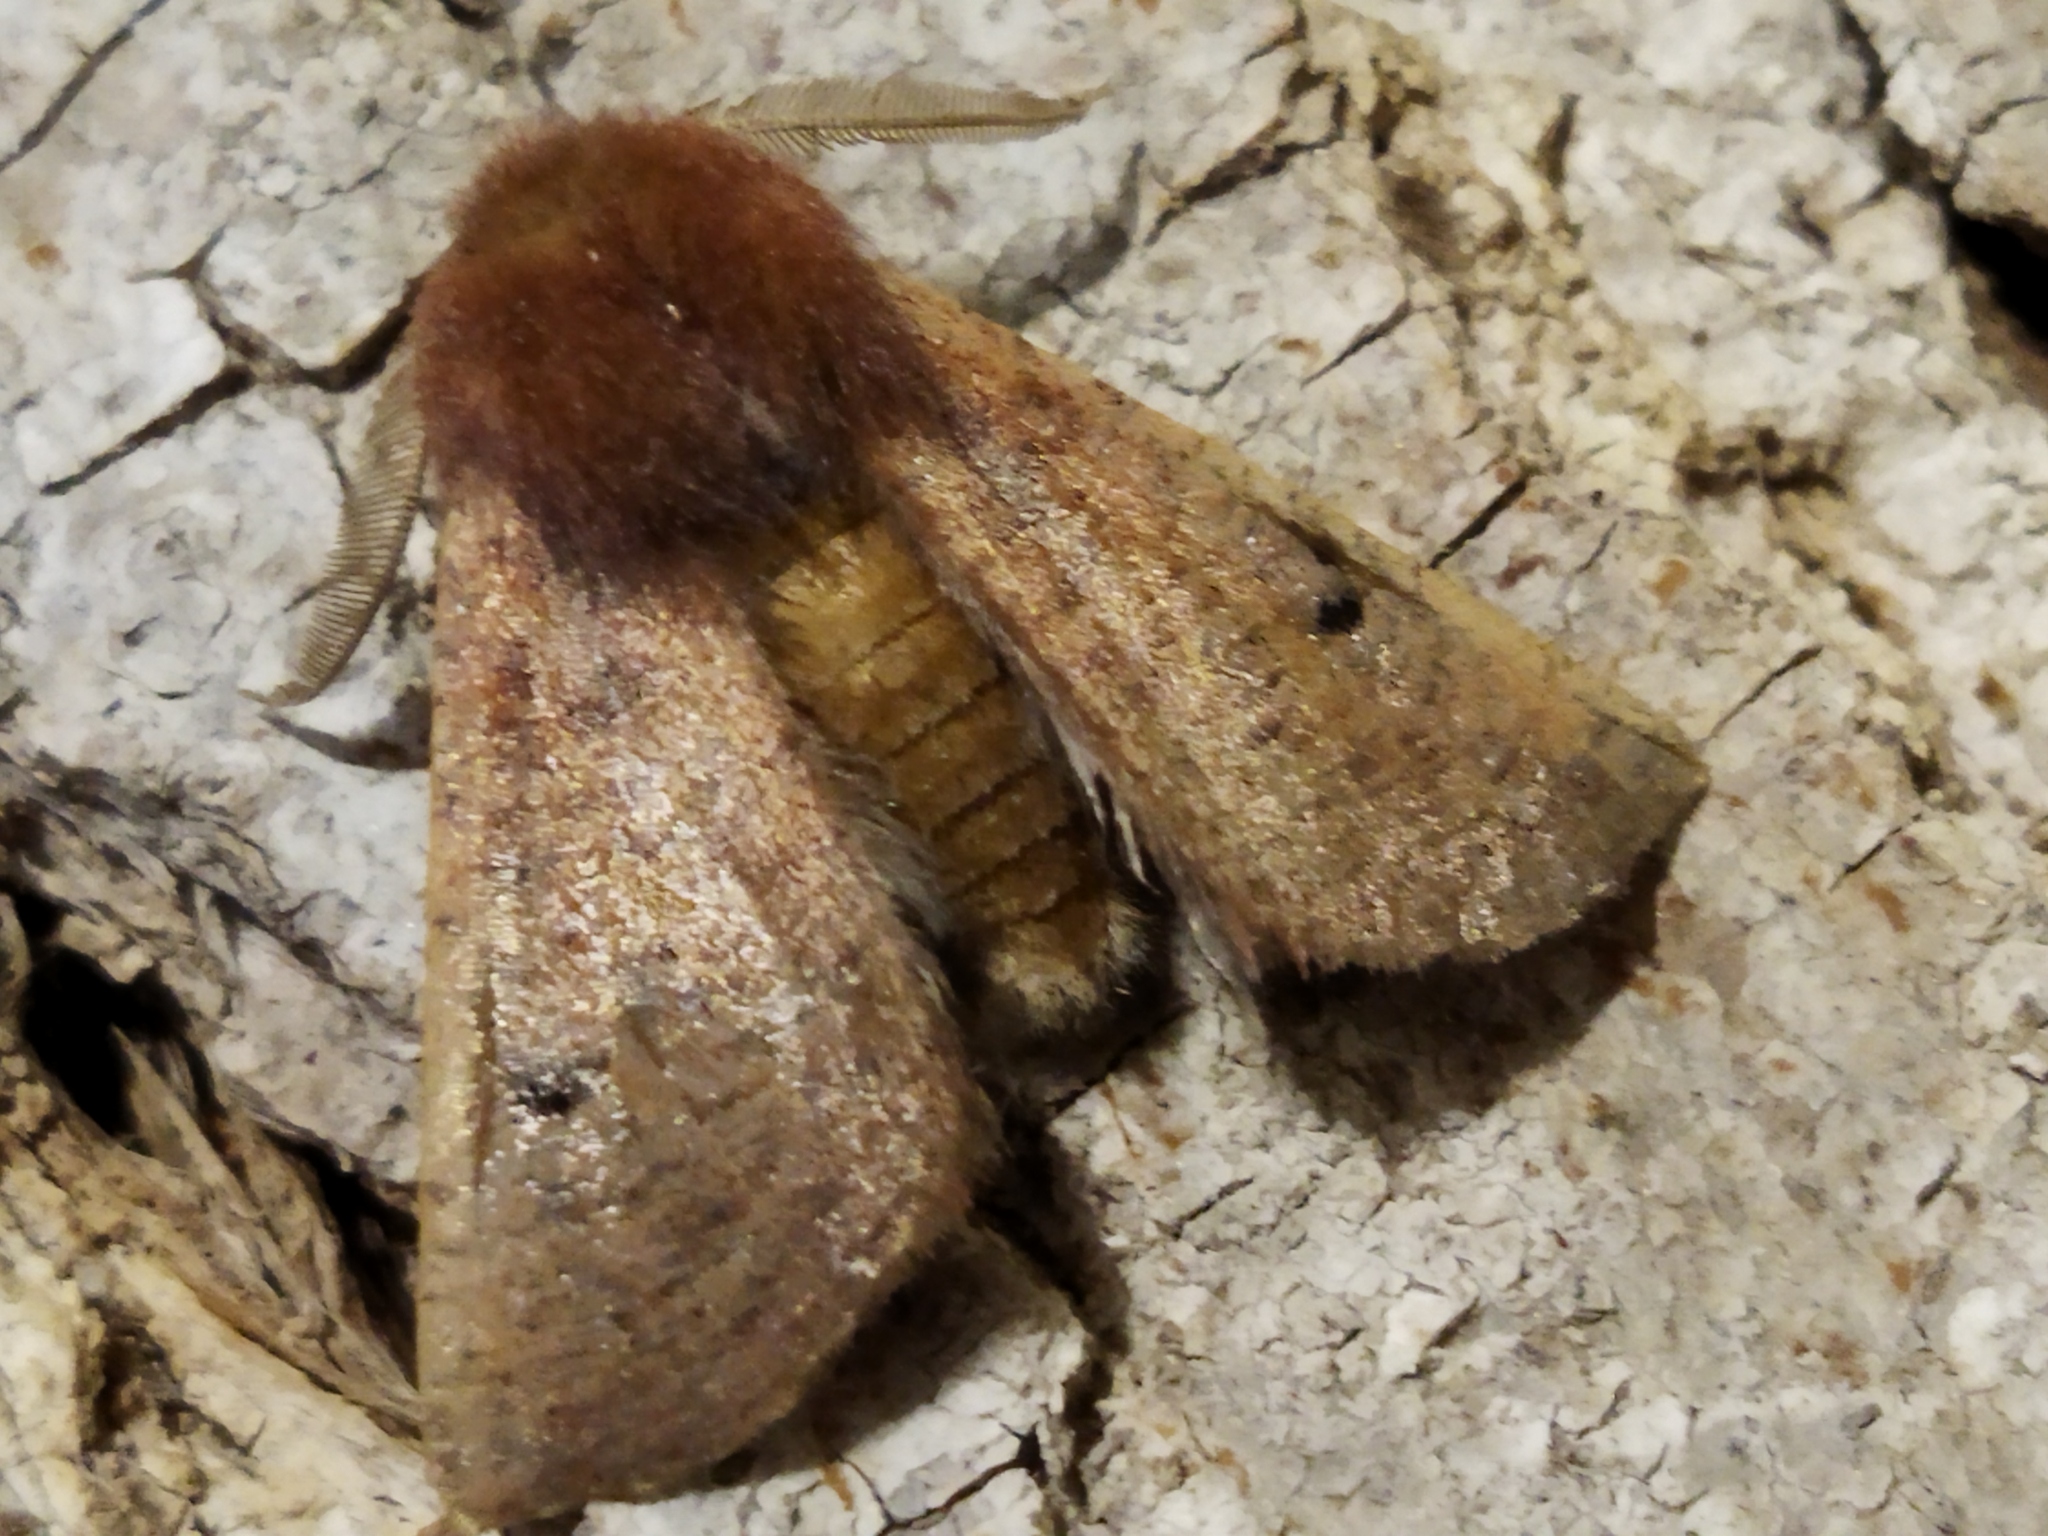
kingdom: Animalia
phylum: Arthropoda
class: Insecta
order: Lepidoptera
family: Geometridae
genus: Dasycorsa
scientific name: Dasycorsa modesta
